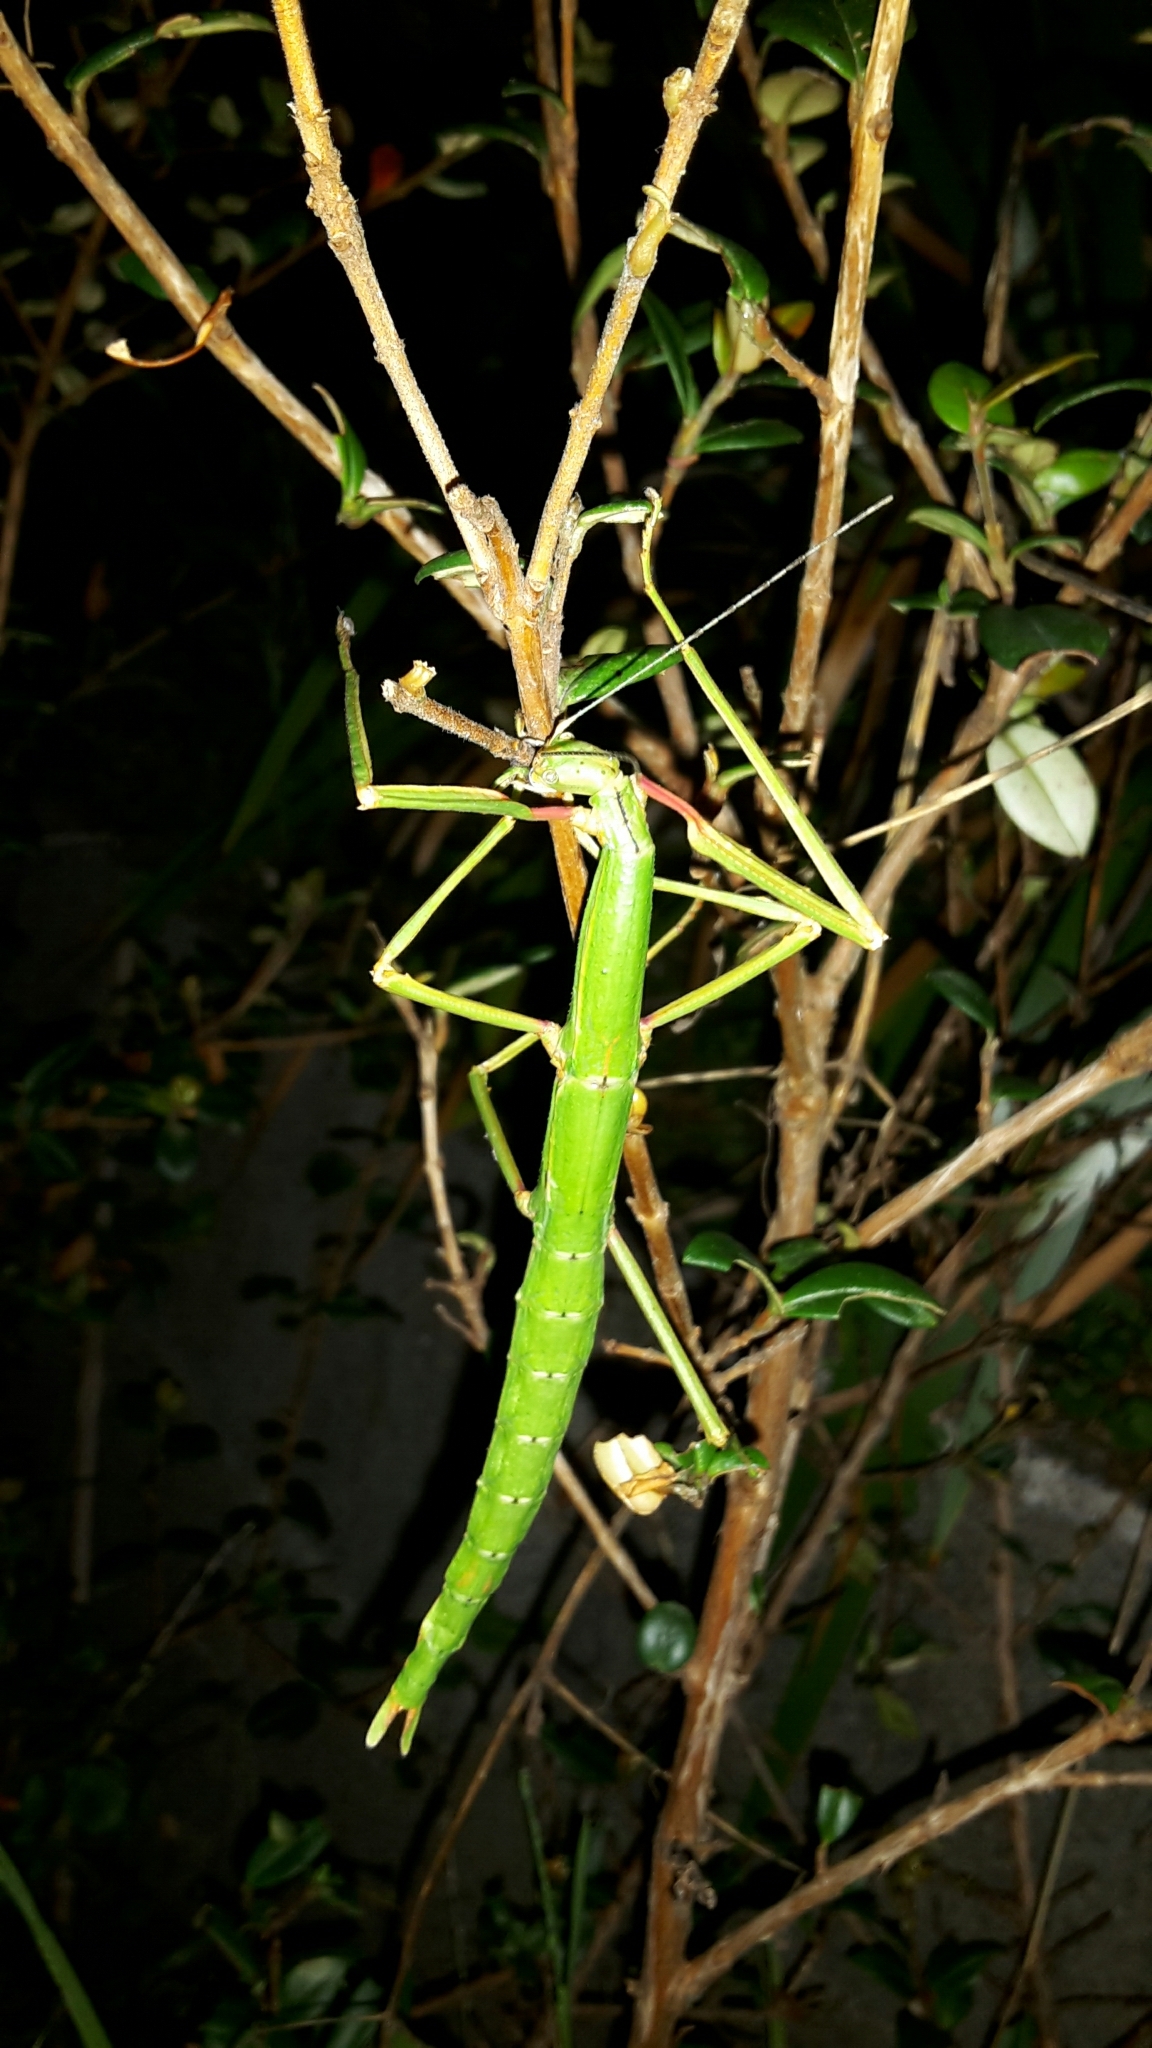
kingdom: Animalia
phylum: Arthropoda
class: Insecta
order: Phasmida
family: Phasmatidae
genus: Clitarchus
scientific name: Clitarchus hookeri
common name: Smooth stick insect
